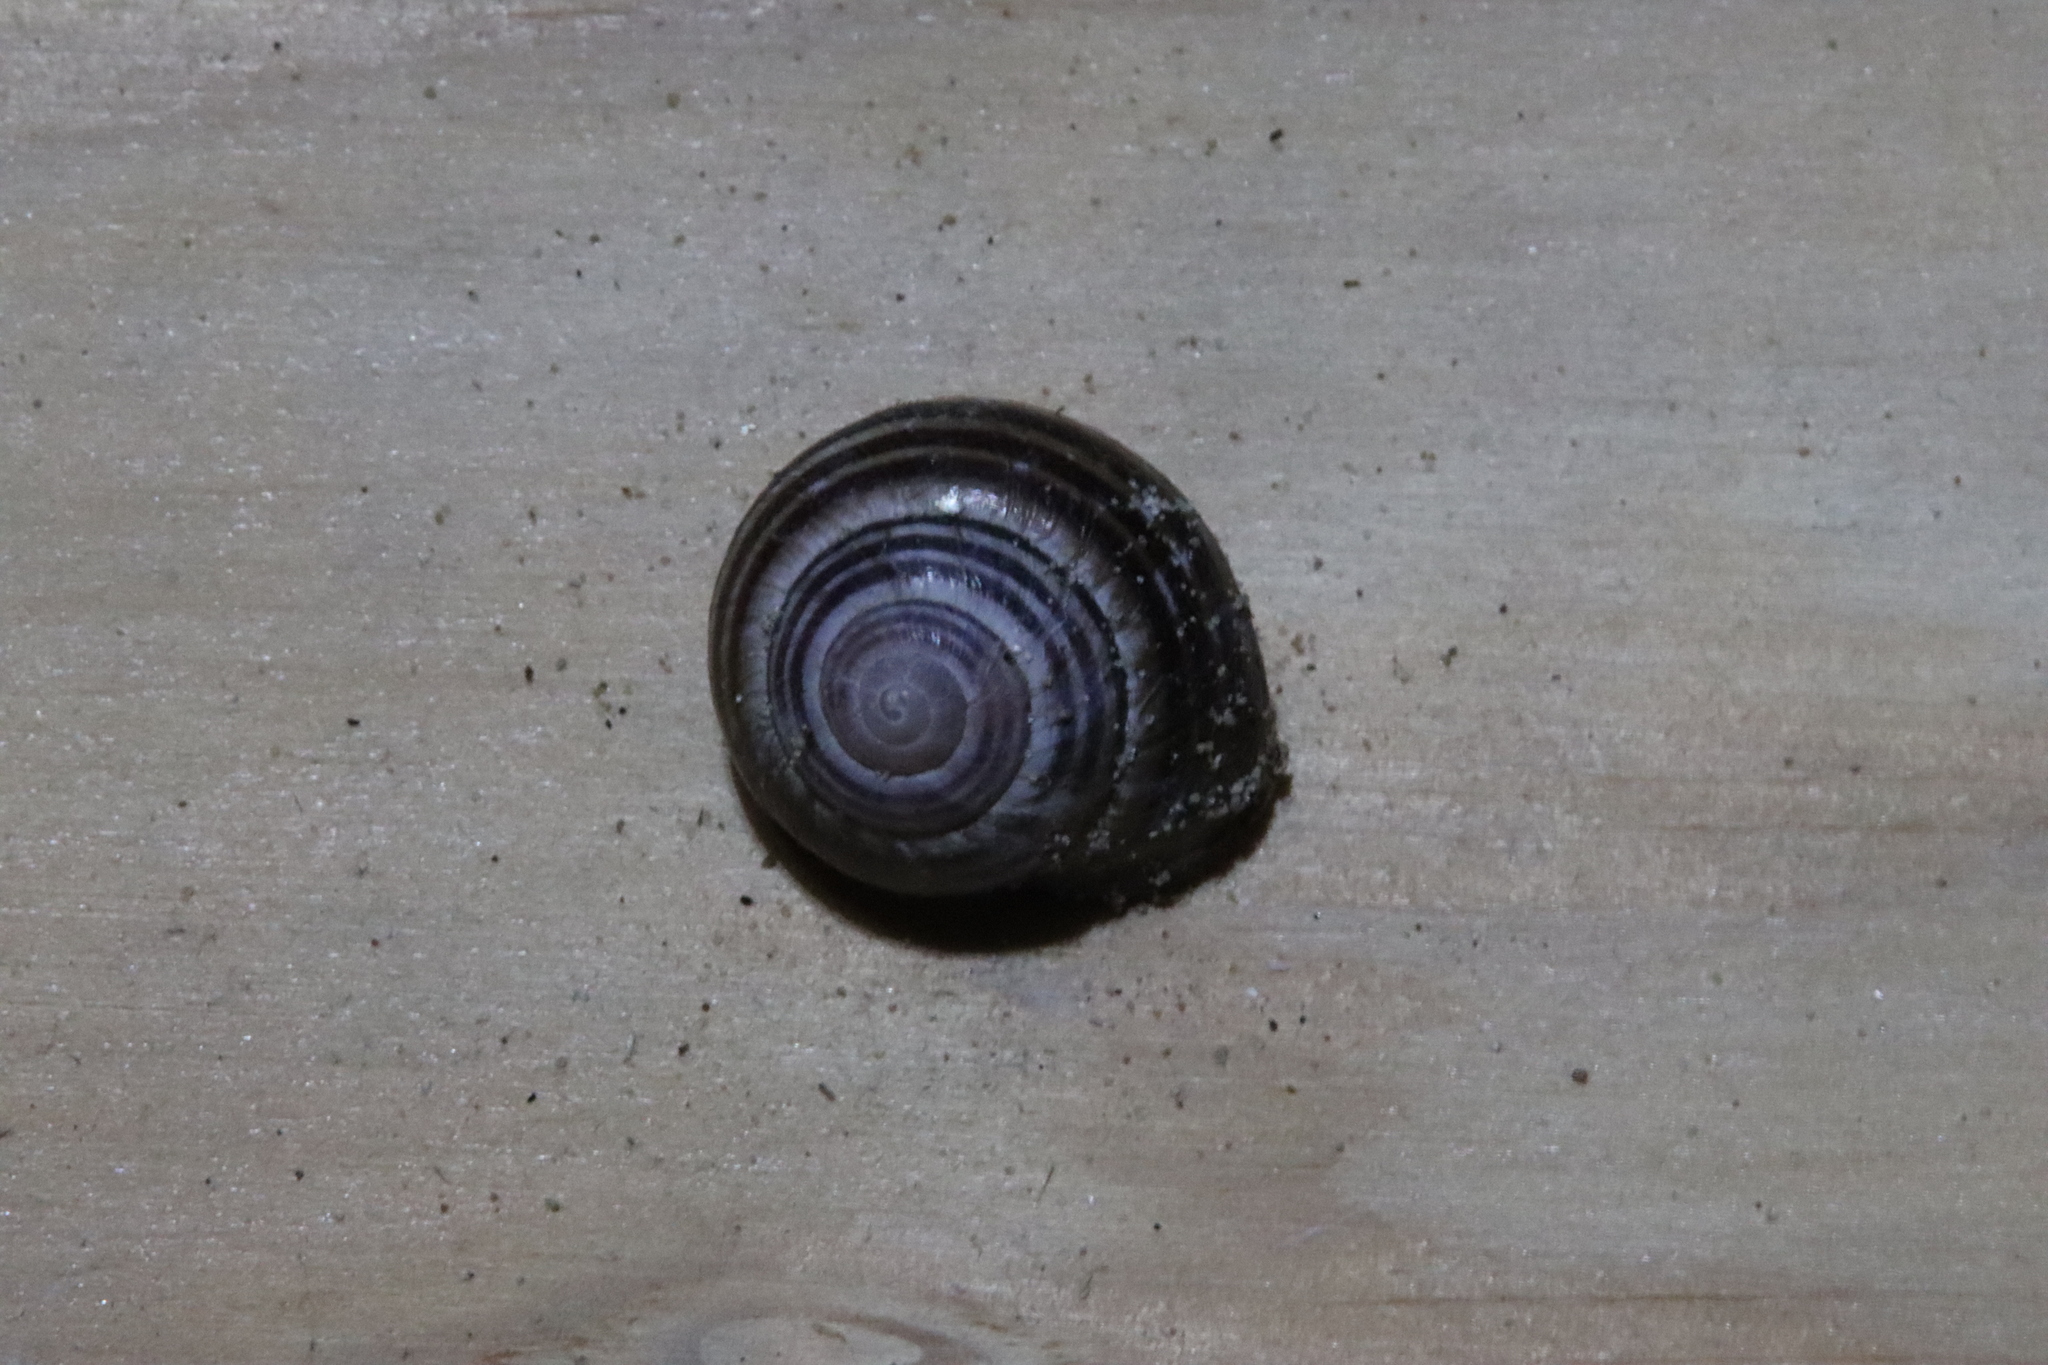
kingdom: Animalia
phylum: Mollusca
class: Gastropoda
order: Stylommatophora
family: Helicidae
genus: Cepaea
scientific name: Cepaea nemoralis
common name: Grovesnail
